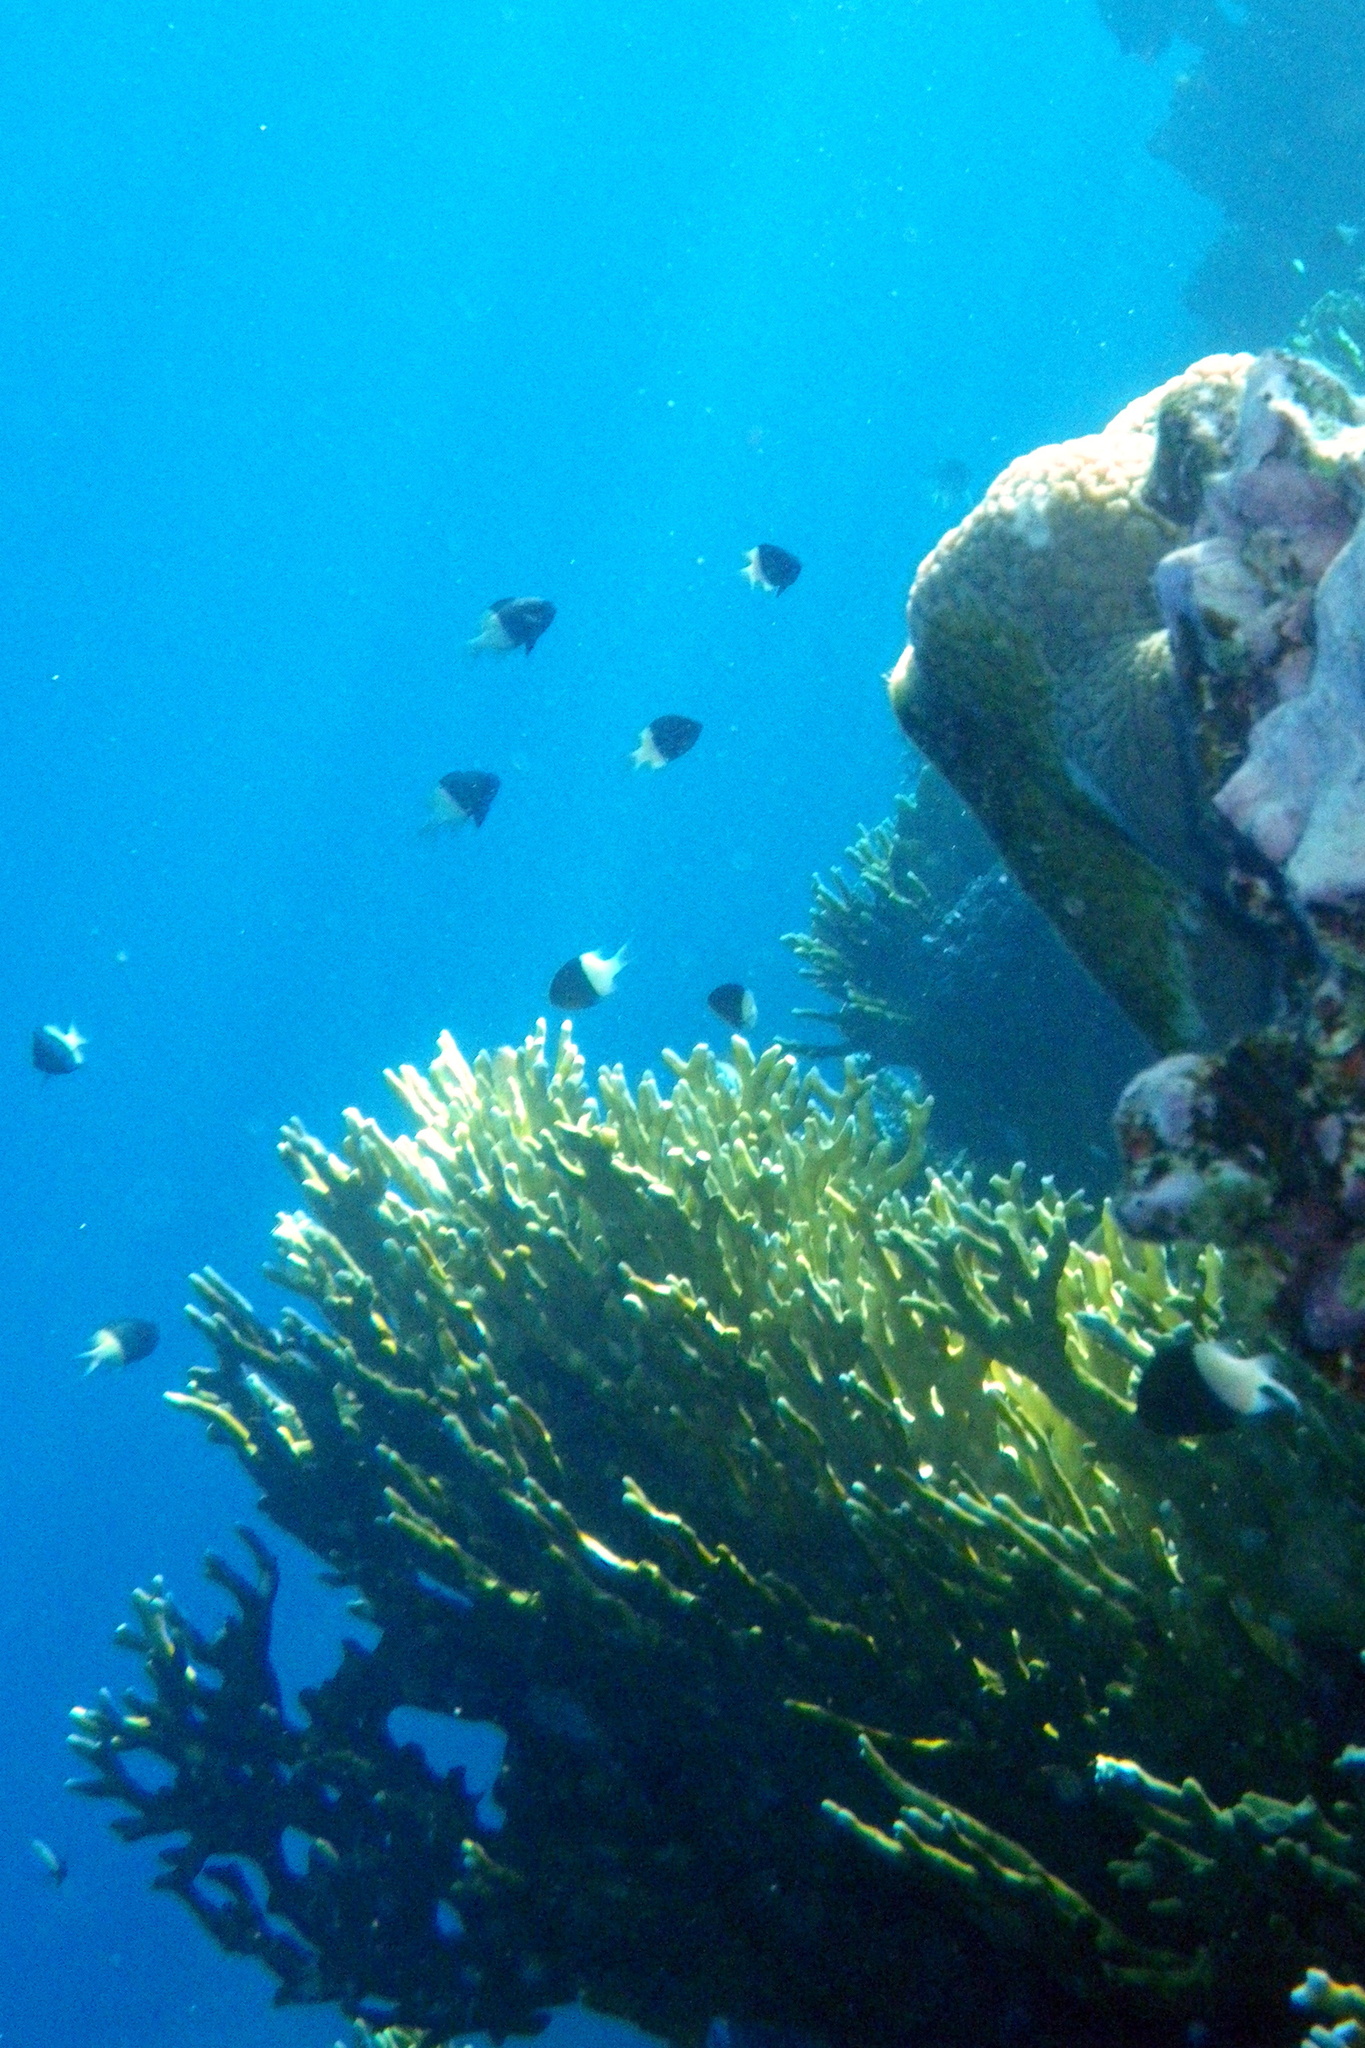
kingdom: Animalia
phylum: Chordata
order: Perciformes
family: Pomacentridae
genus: Chromis
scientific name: Chromis dimidiata
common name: Half-and-half chromis
